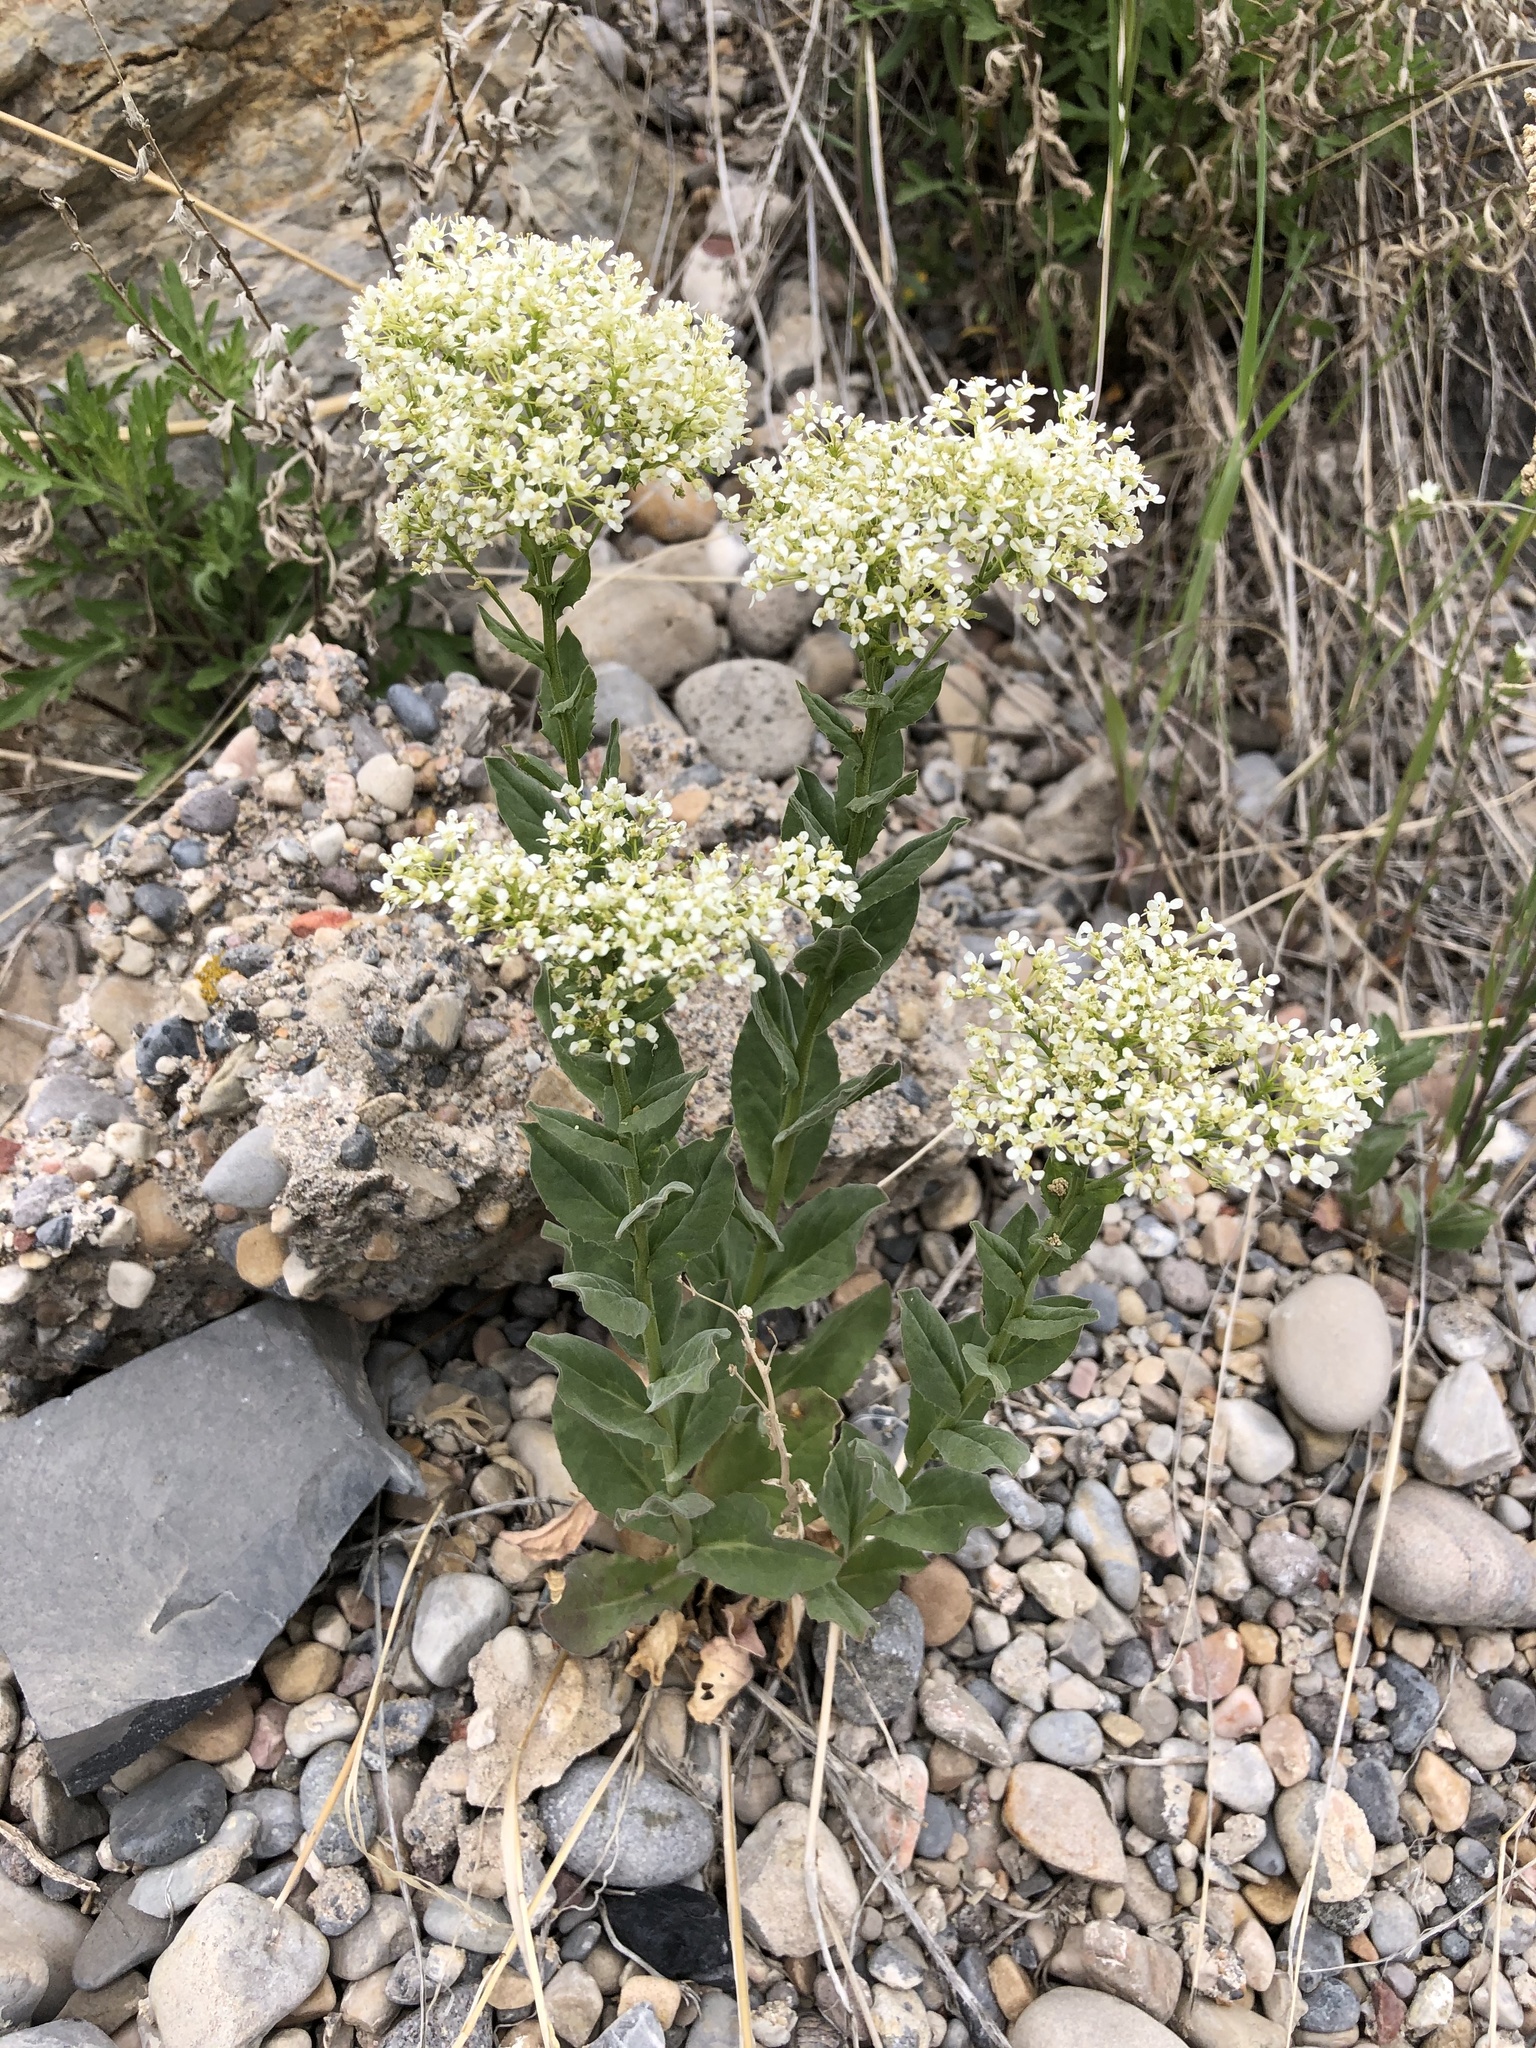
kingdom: Plantae
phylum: Tracheophyta
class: Magnoliopsida
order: Brassicales
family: Brassicaceae
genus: Lepidium
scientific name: Lepidium draba
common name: Hoary cress
